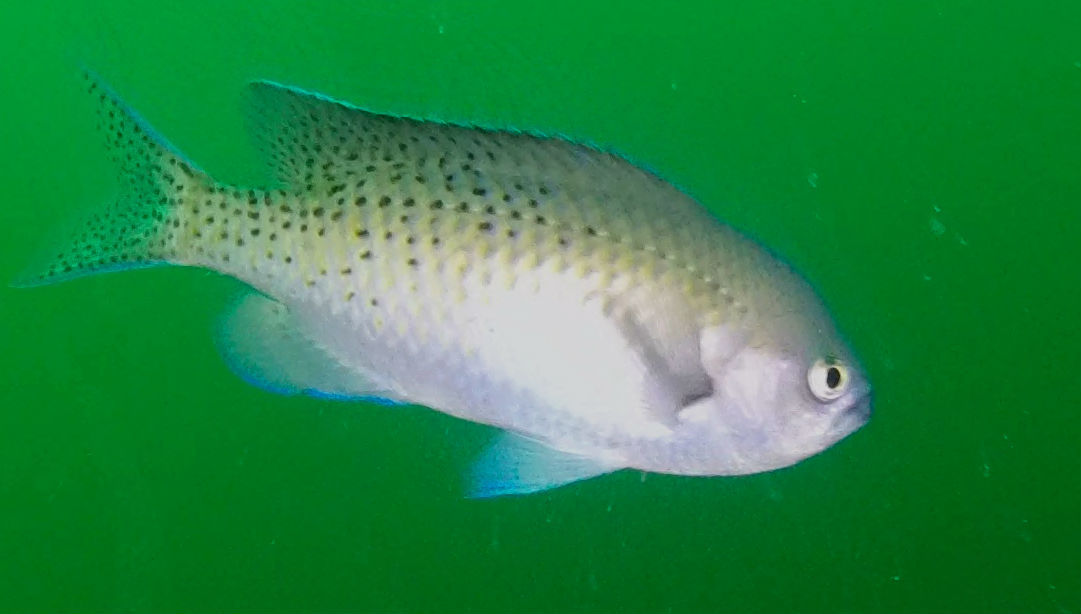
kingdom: Animalia
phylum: Chordata
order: Perciformes
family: Pomacentridae
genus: Chromis
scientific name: Chromis punctipinnis
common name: Blacksmith
